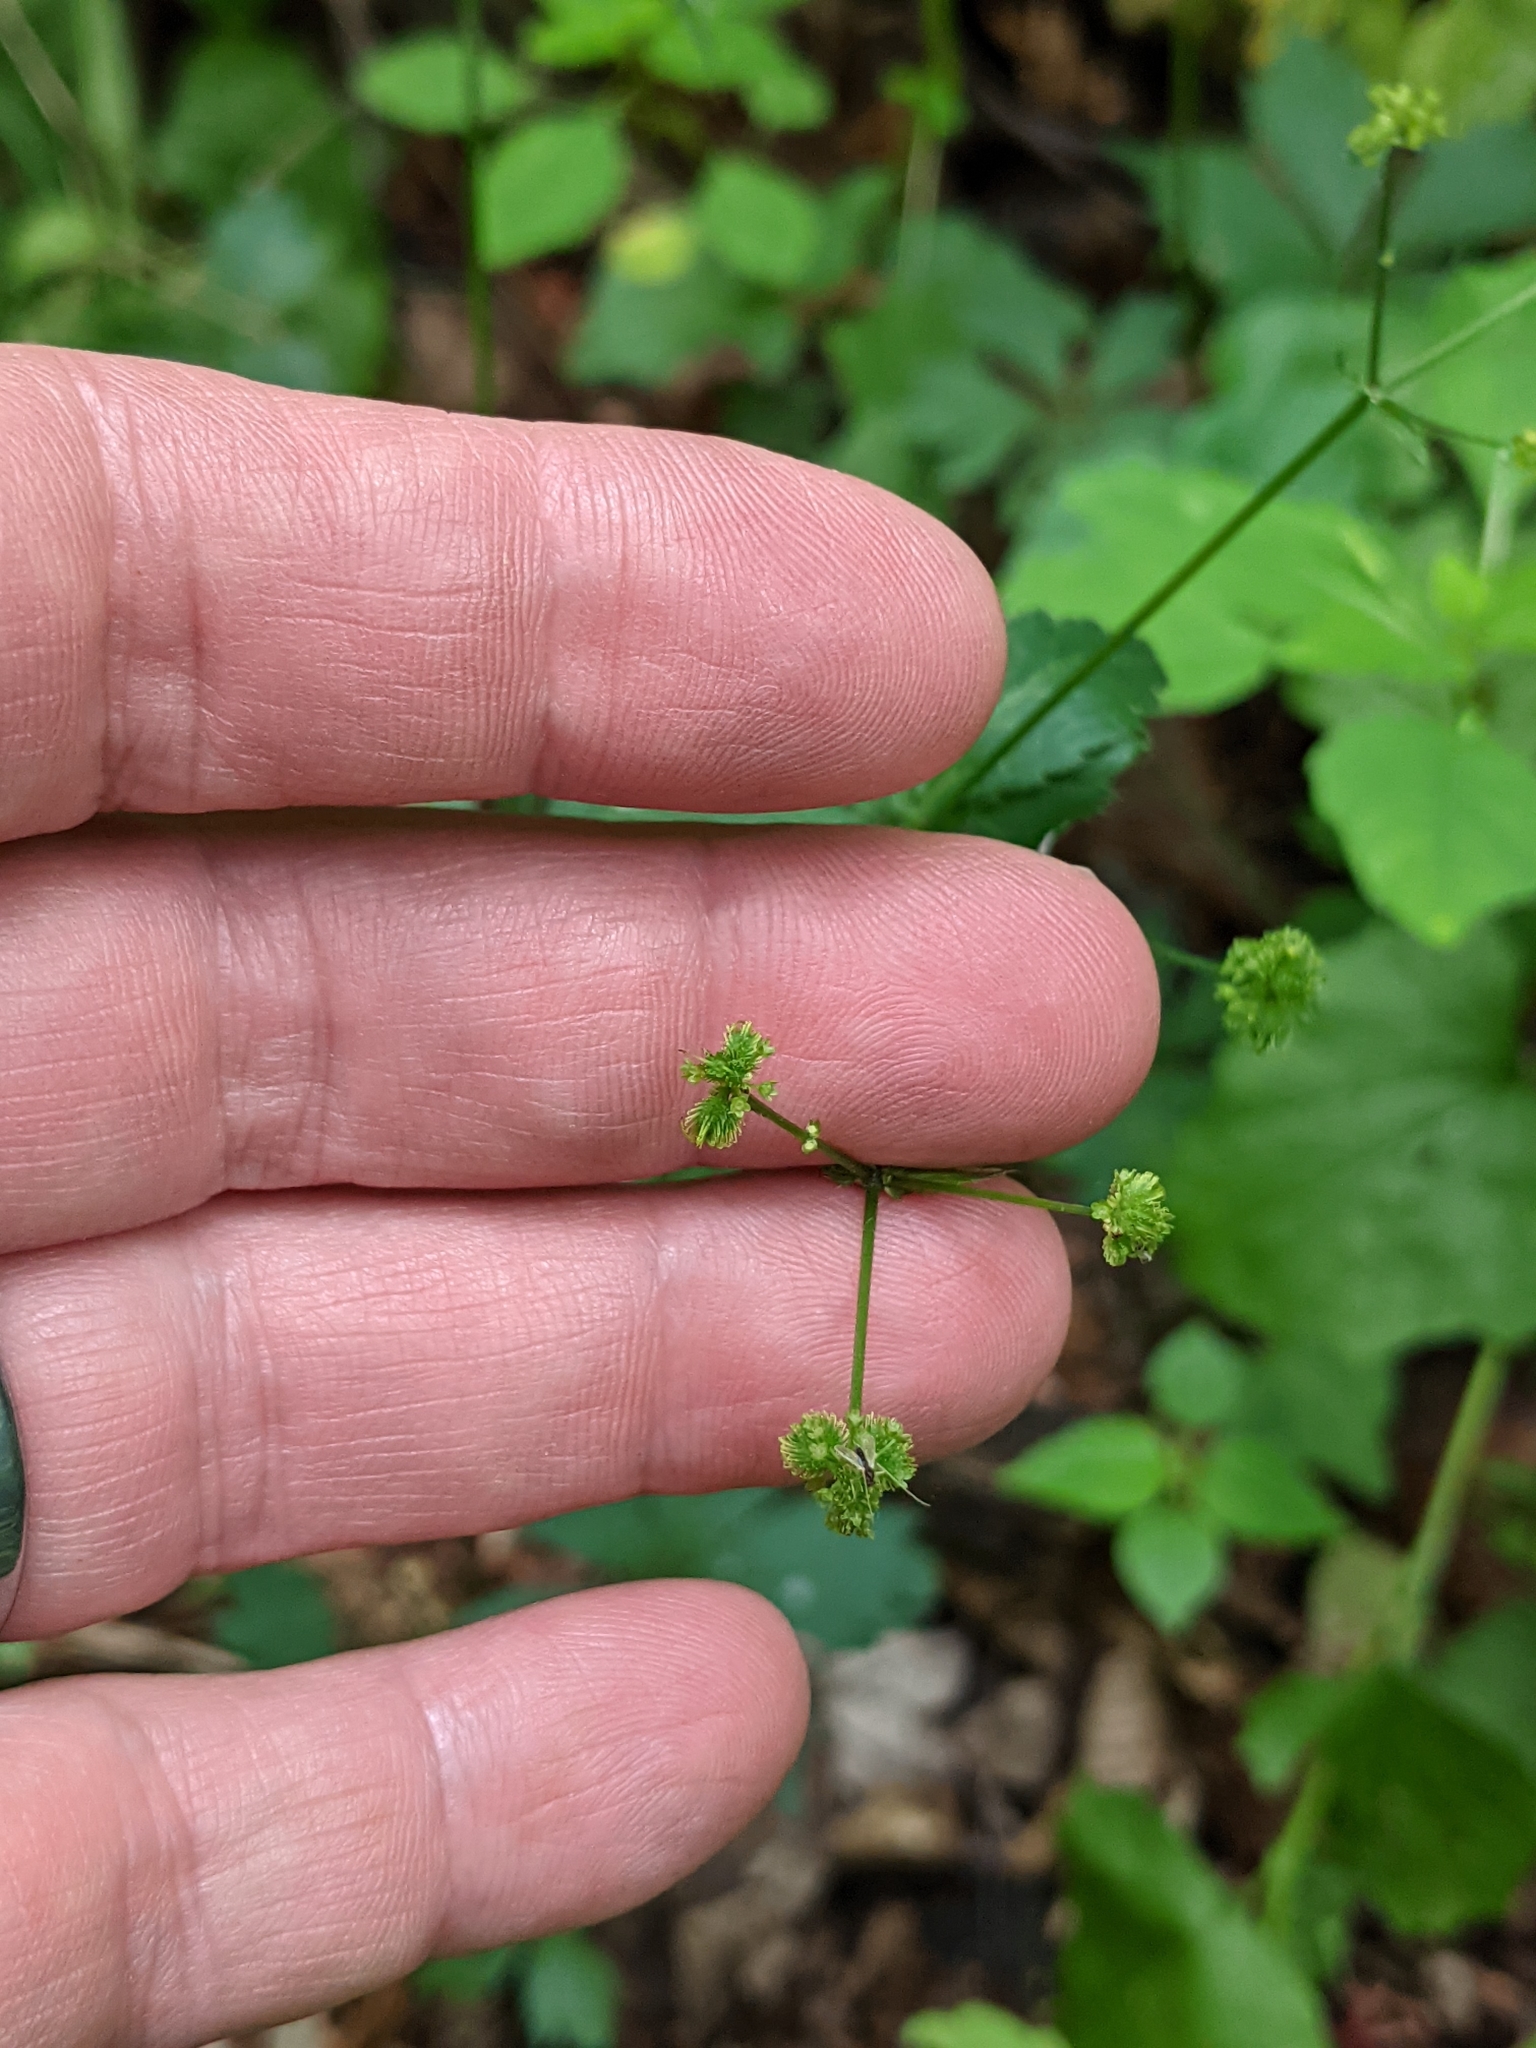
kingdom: Plantae
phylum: Tracheophyta
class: Magnoliopsida
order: Apiales
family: Apiaceae
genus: Sanicula
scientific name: Sanicula odorata
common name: Cluster sanicle
